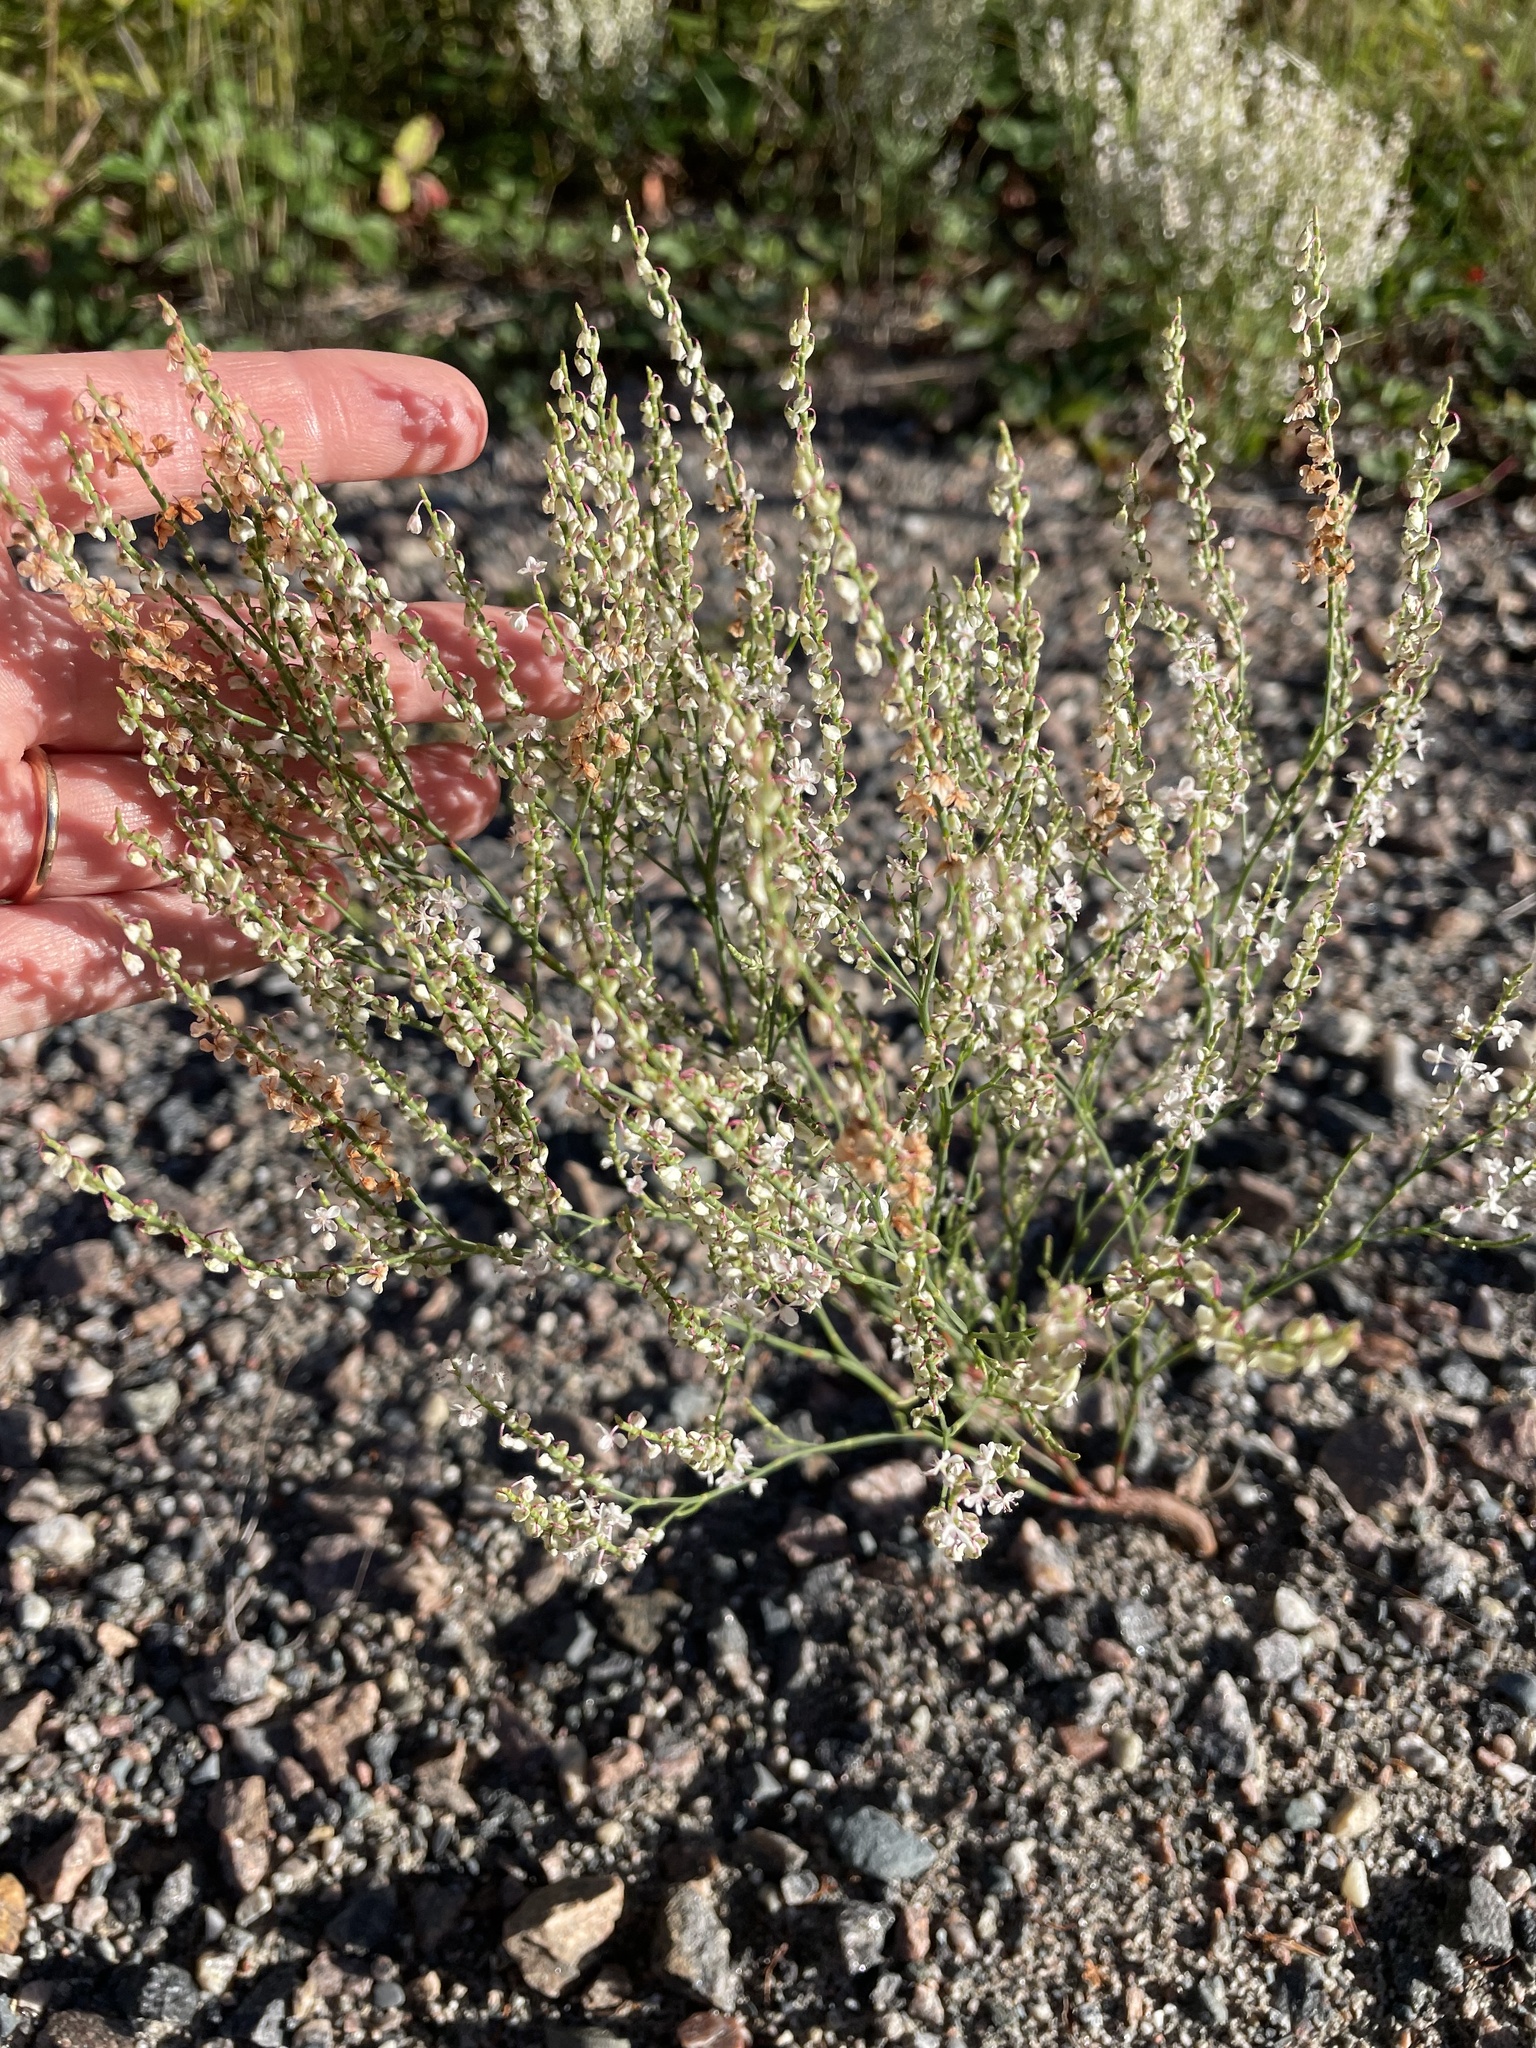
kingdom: Plantae
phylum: Tracheophyta
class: Magnoliopsida
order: Caryophyllales
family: Polygonaceae
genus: Polygonella
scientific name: Polygonella articulata
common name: Coastal jointweed
